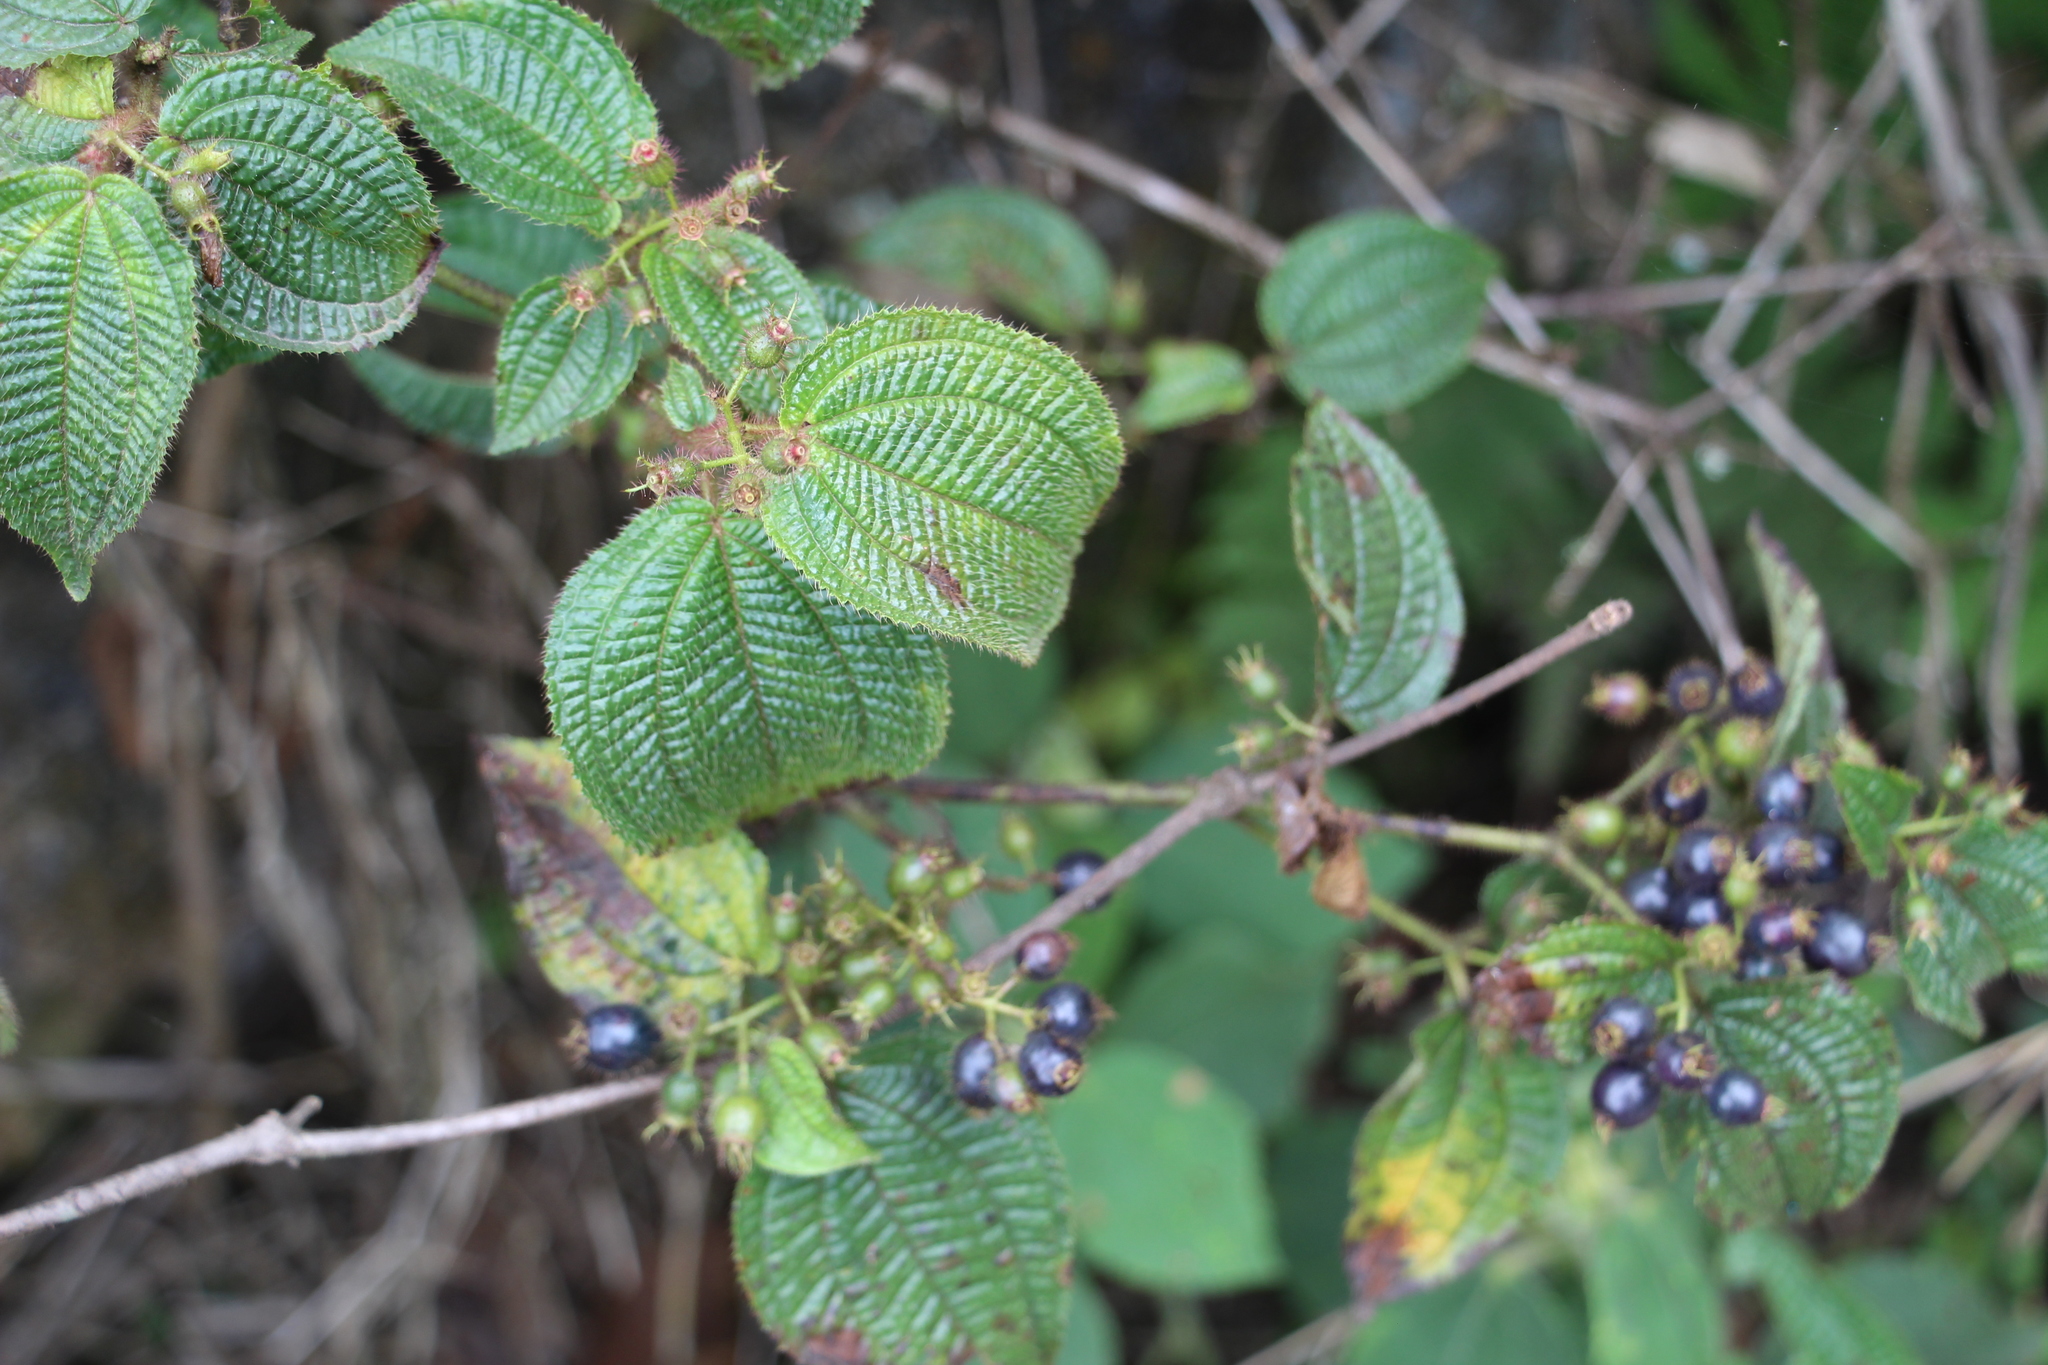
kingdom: Plantae
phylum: Tracheophyta
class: Magnoliopsida
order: Myrtales
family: Melastomataceae
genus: Miconia
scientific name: Miconia crenata
